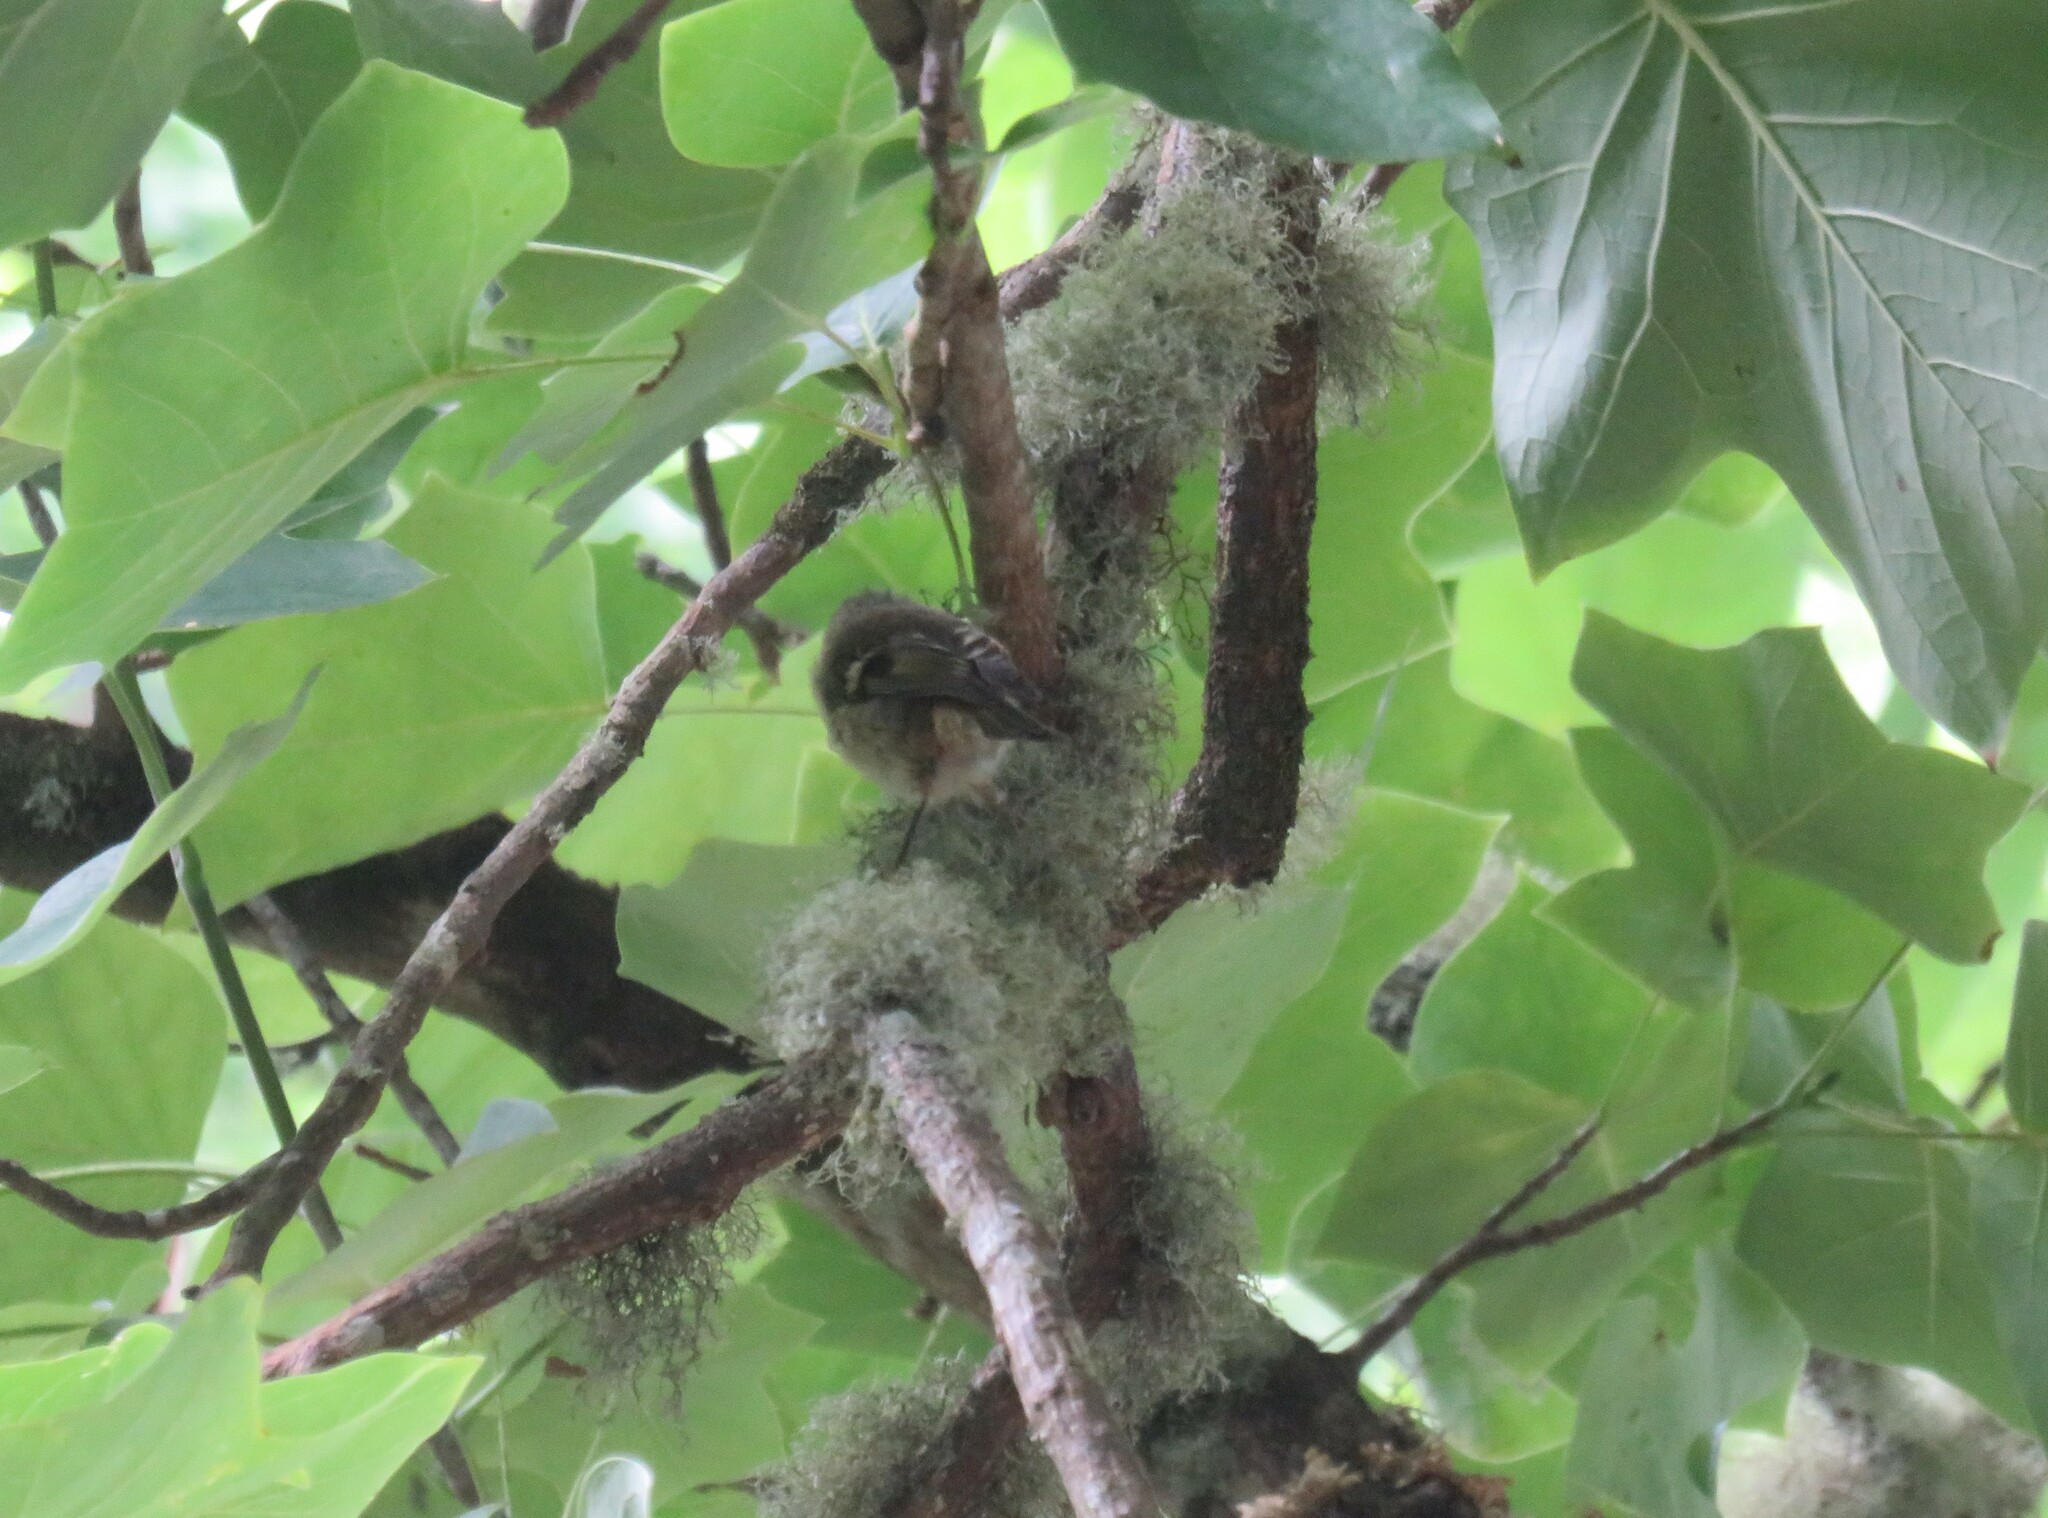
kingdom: Animalia
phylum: Chordata
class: Aves
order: Passeriformes
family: Regulidae
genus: Regulus
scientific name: Regulus regulus
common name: Goldcrest
